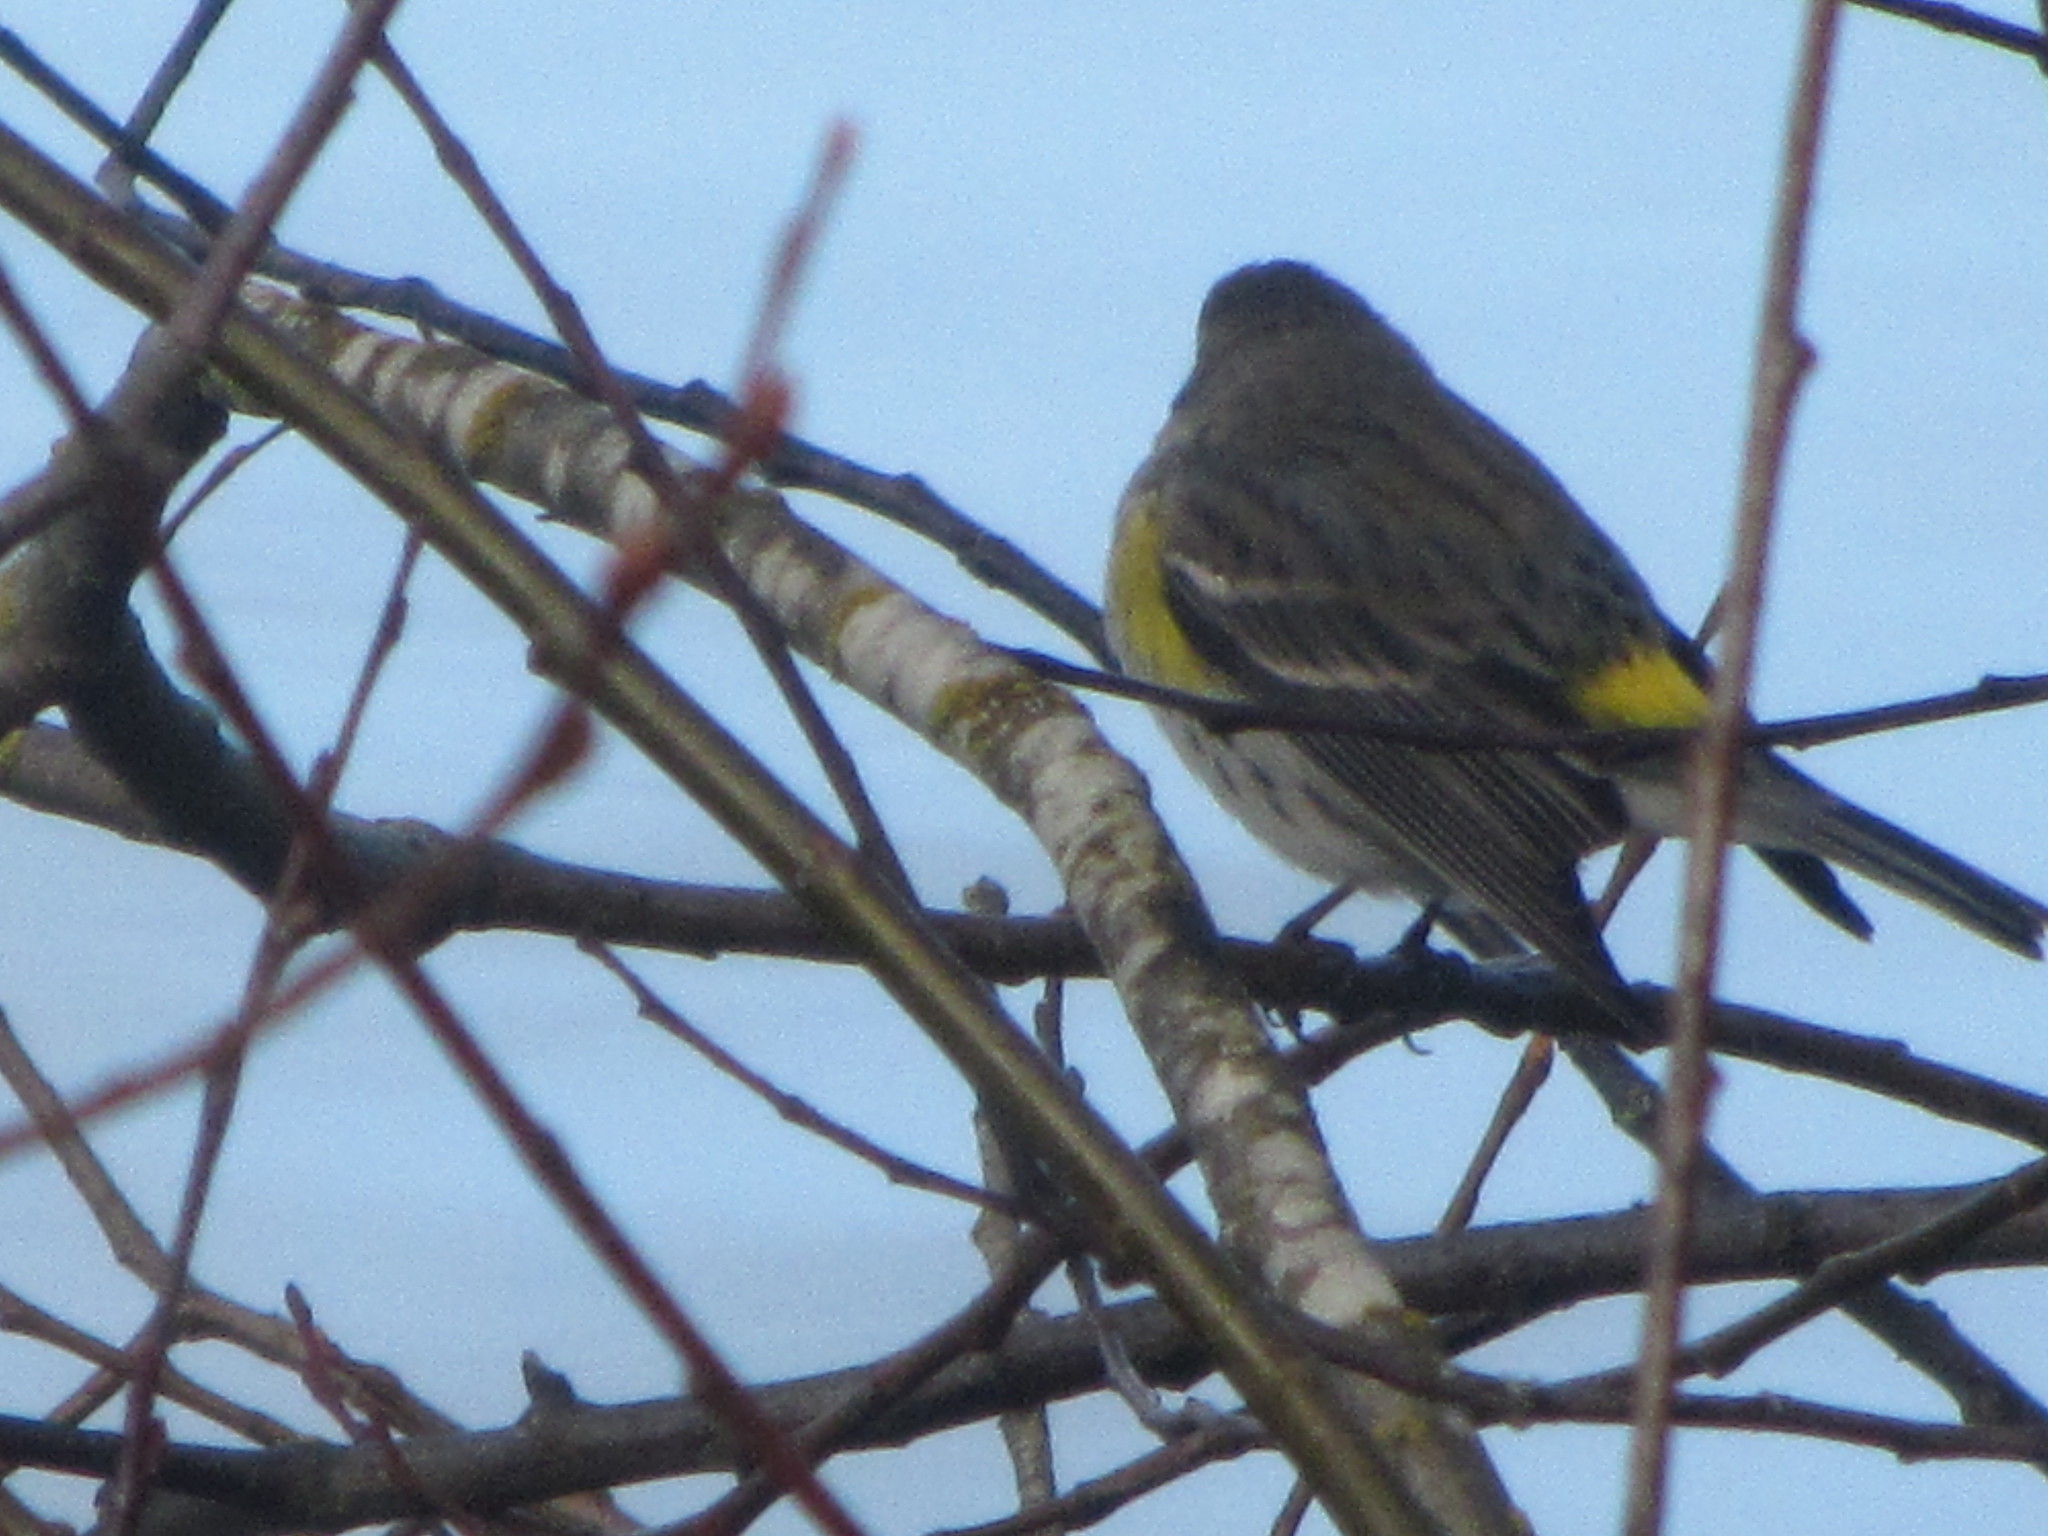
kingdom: Animalia
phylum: Chordata
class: Aves
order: Passeriformes
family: Parulidae
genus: Setophaga
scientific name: Setophaga coronata
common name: Myrtle warbler
